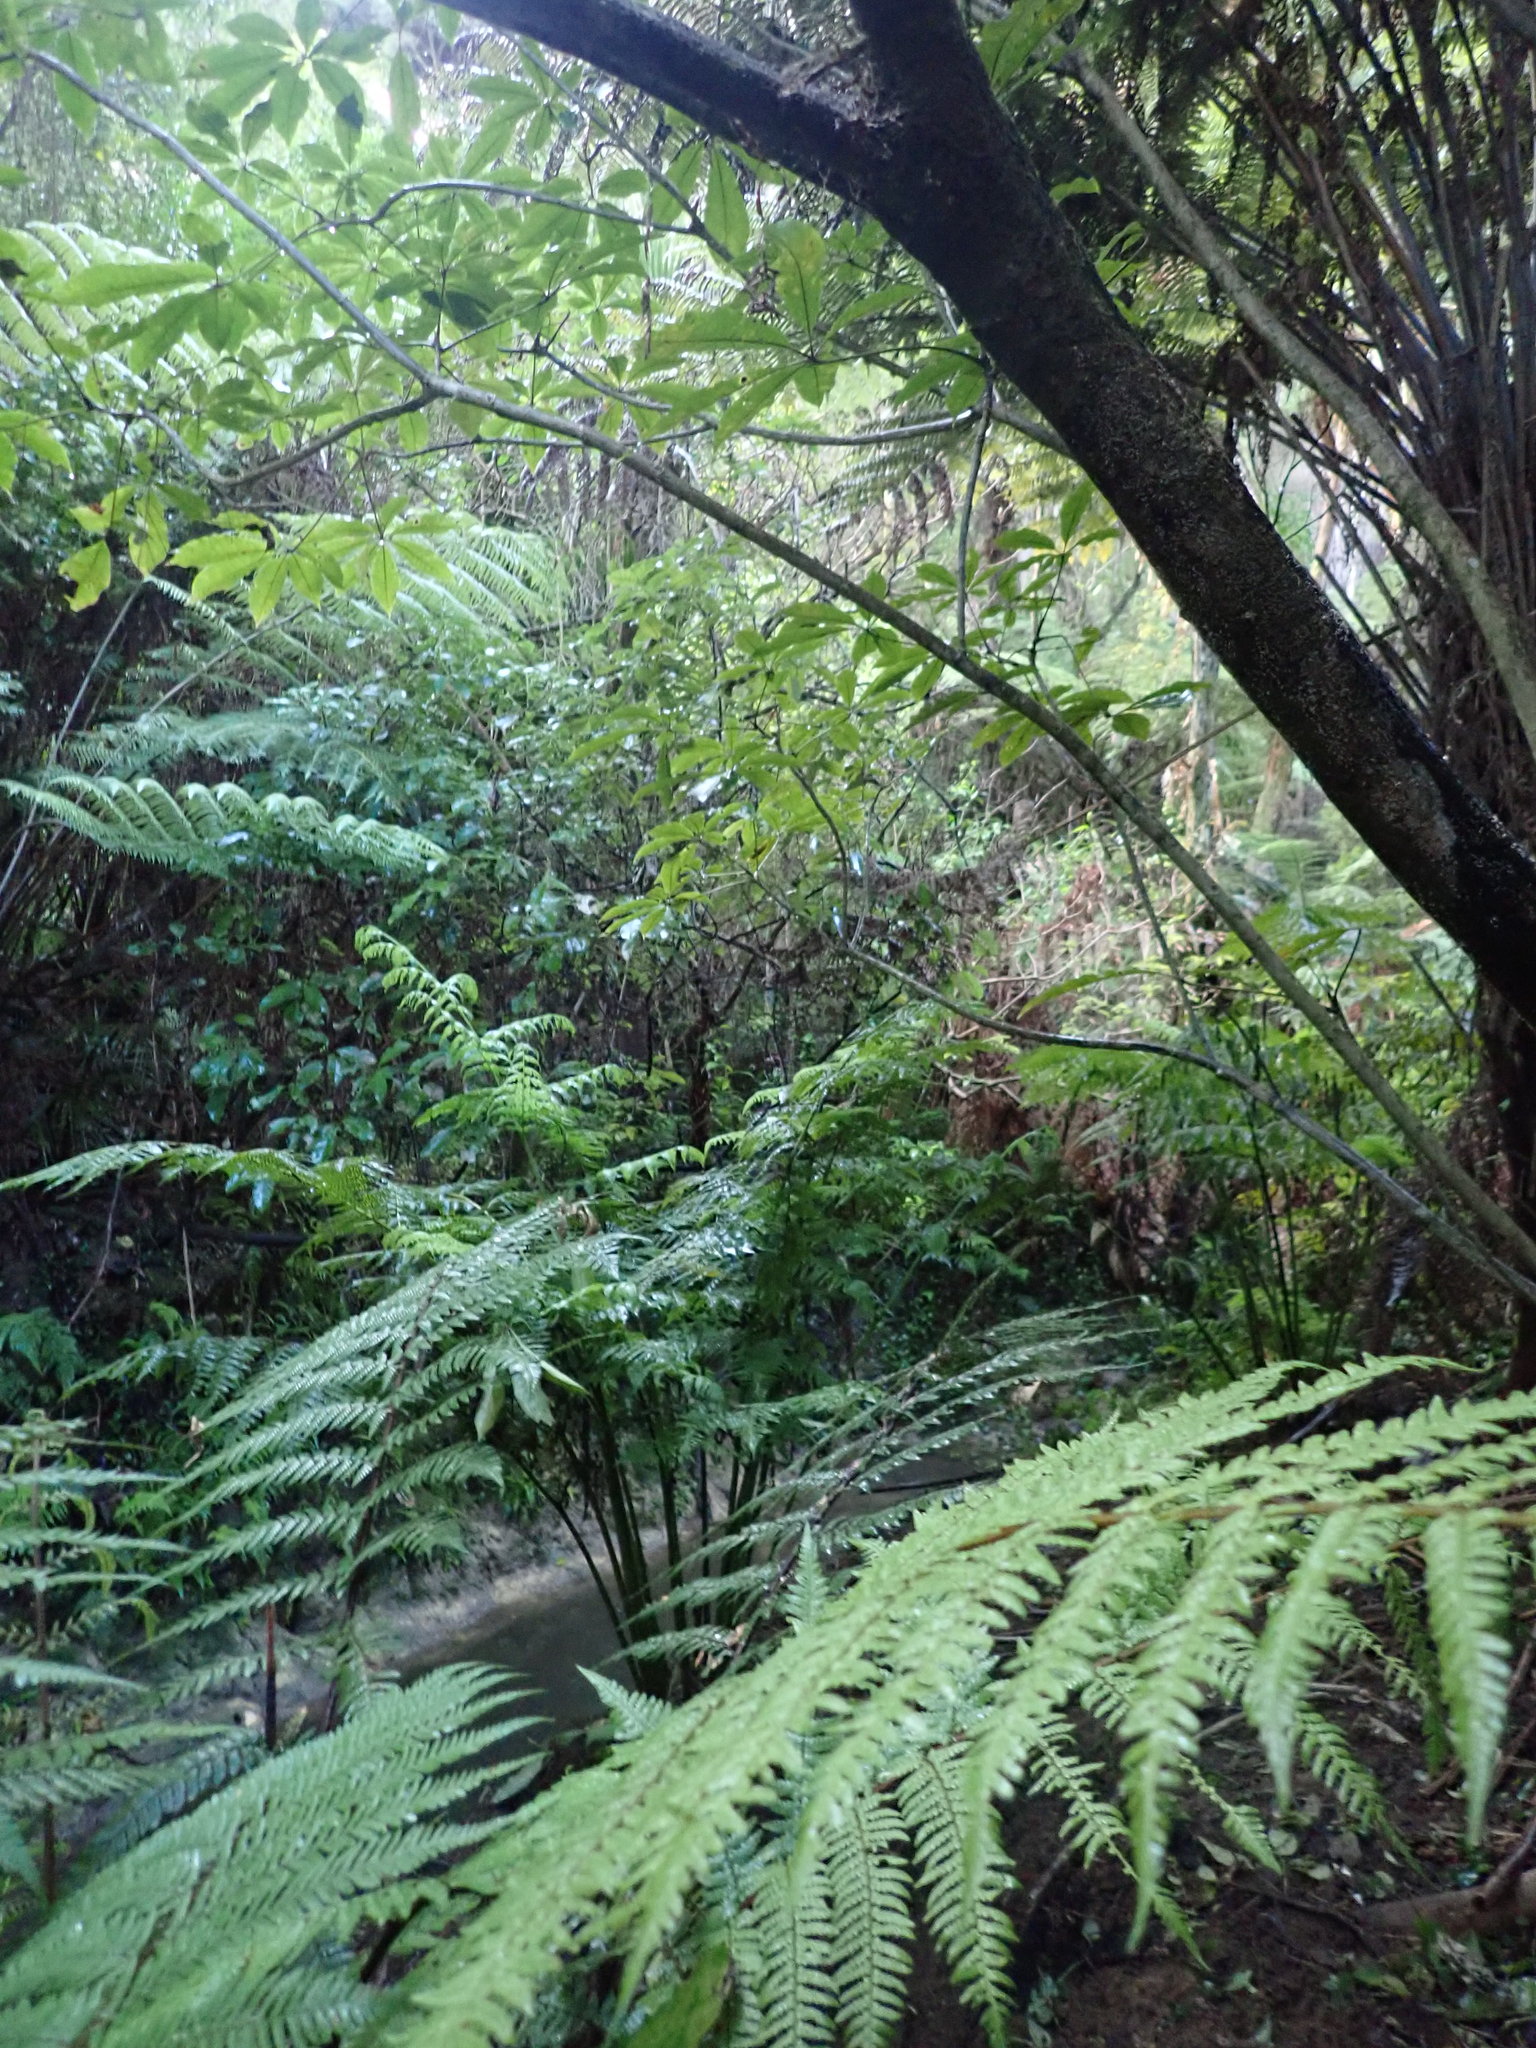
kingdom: Plantae
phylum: Tracheophyta
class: Magnoliopsida
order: Apiales
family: Araliaceae
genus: Schefflera
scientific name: Schefflera digitata
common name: Pate
